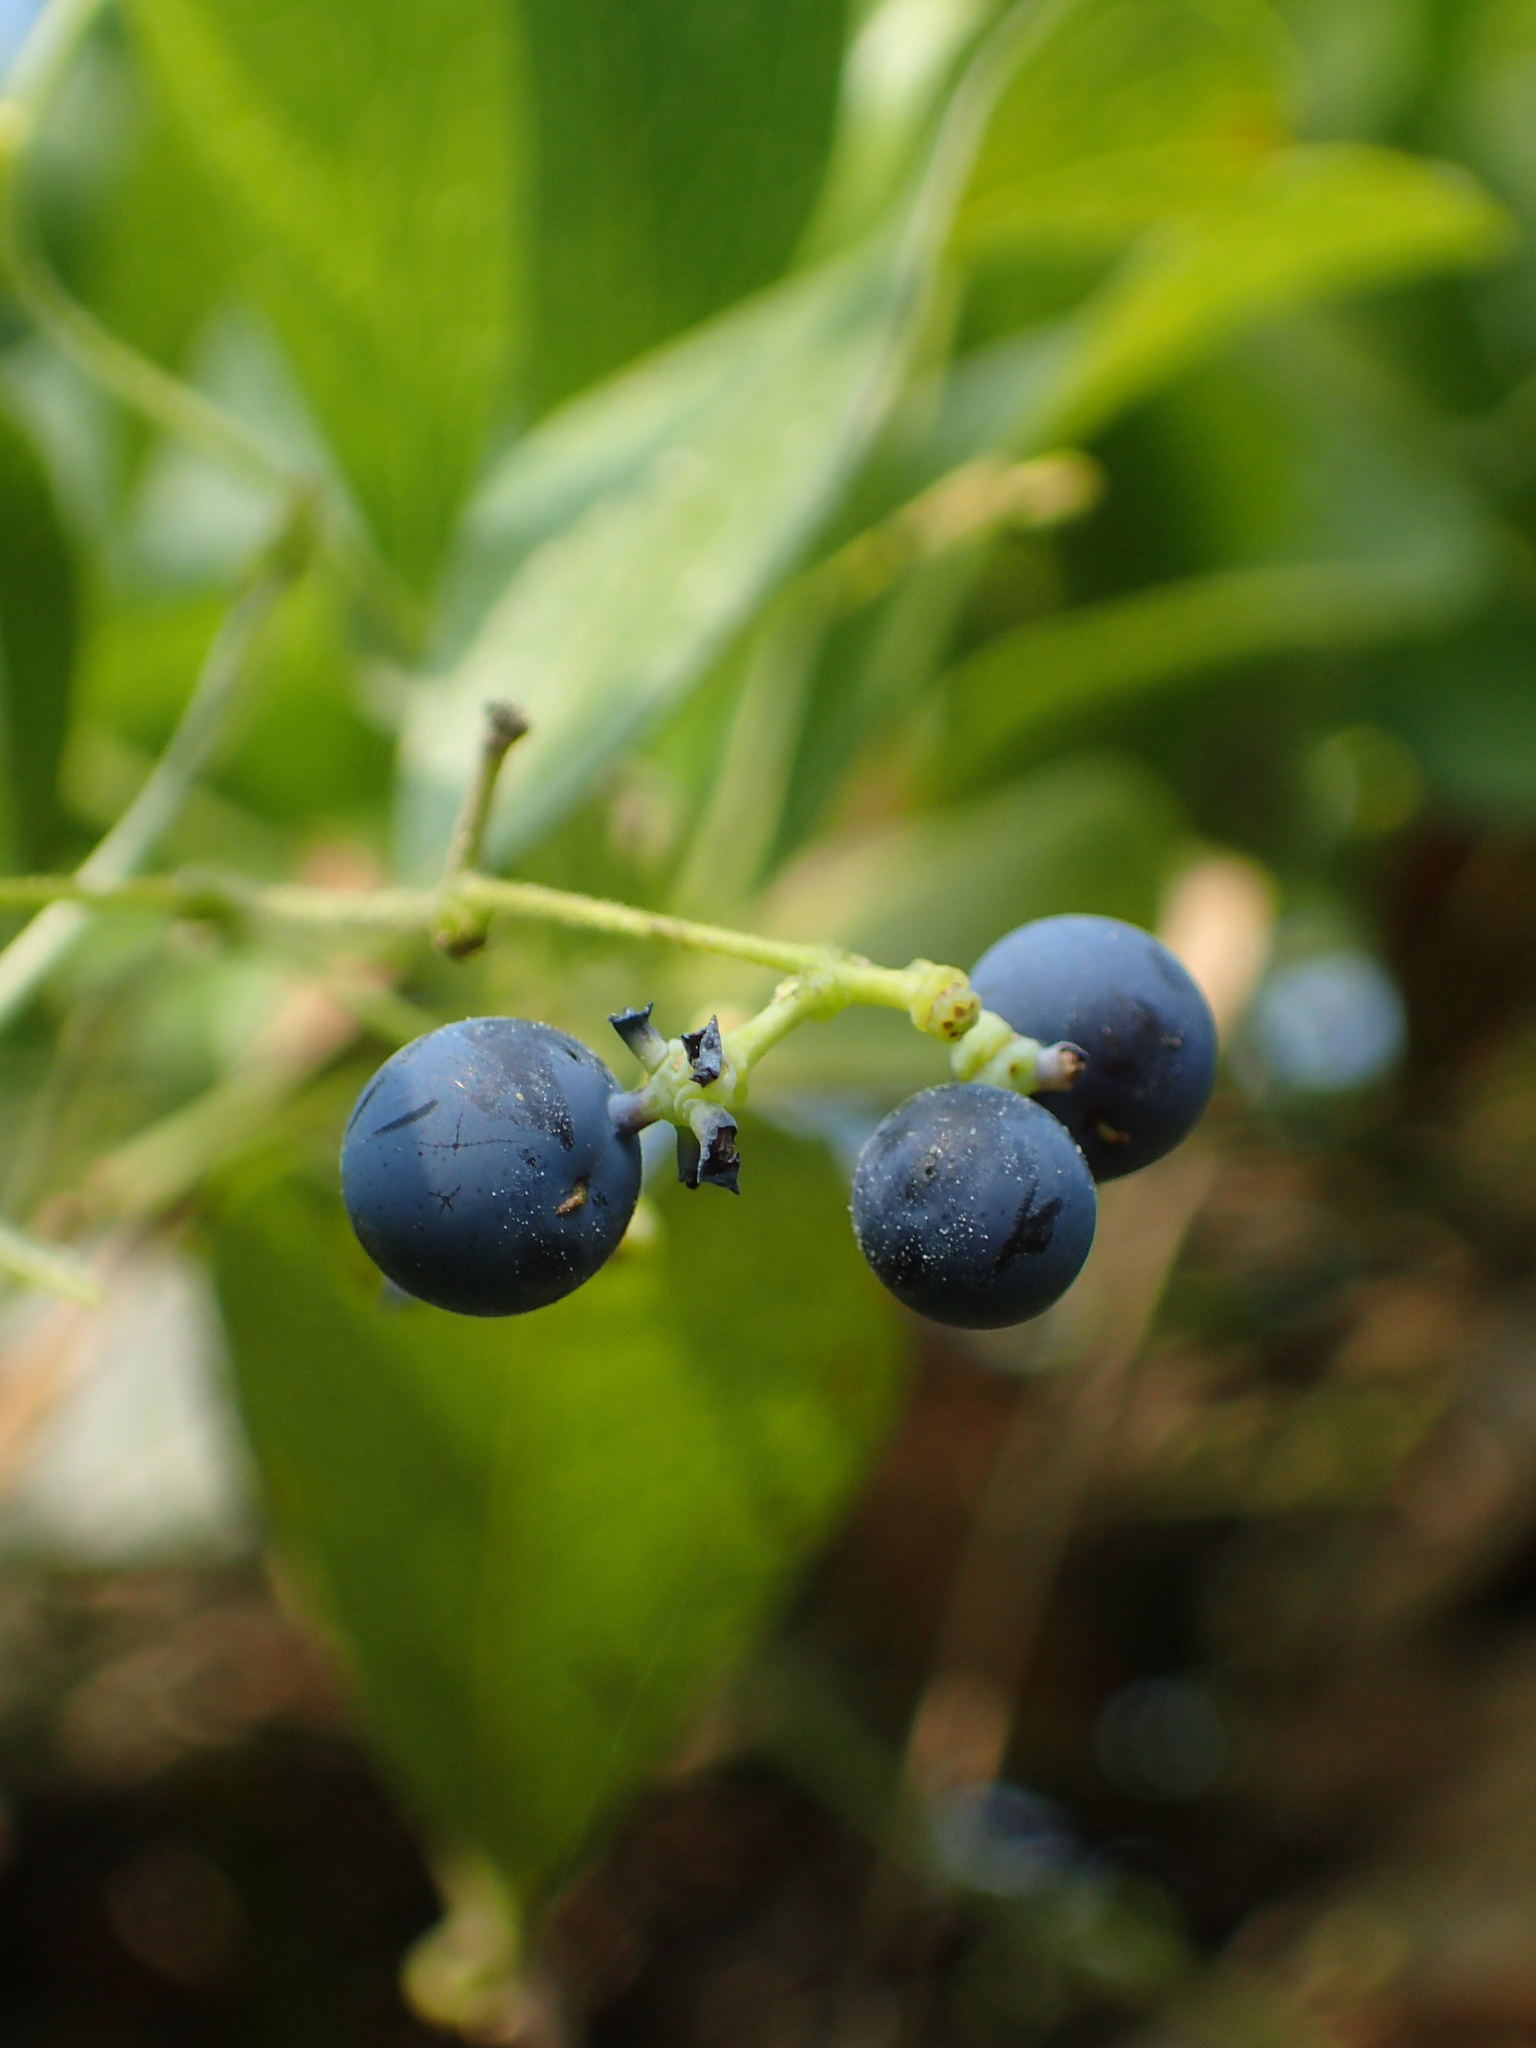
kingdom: Plantae
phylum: Tracheophyta
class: Magnoliopsida
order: Ranunculales
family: Menispermaceae
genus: Cocculus
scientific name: Cocculus orbiculatus
